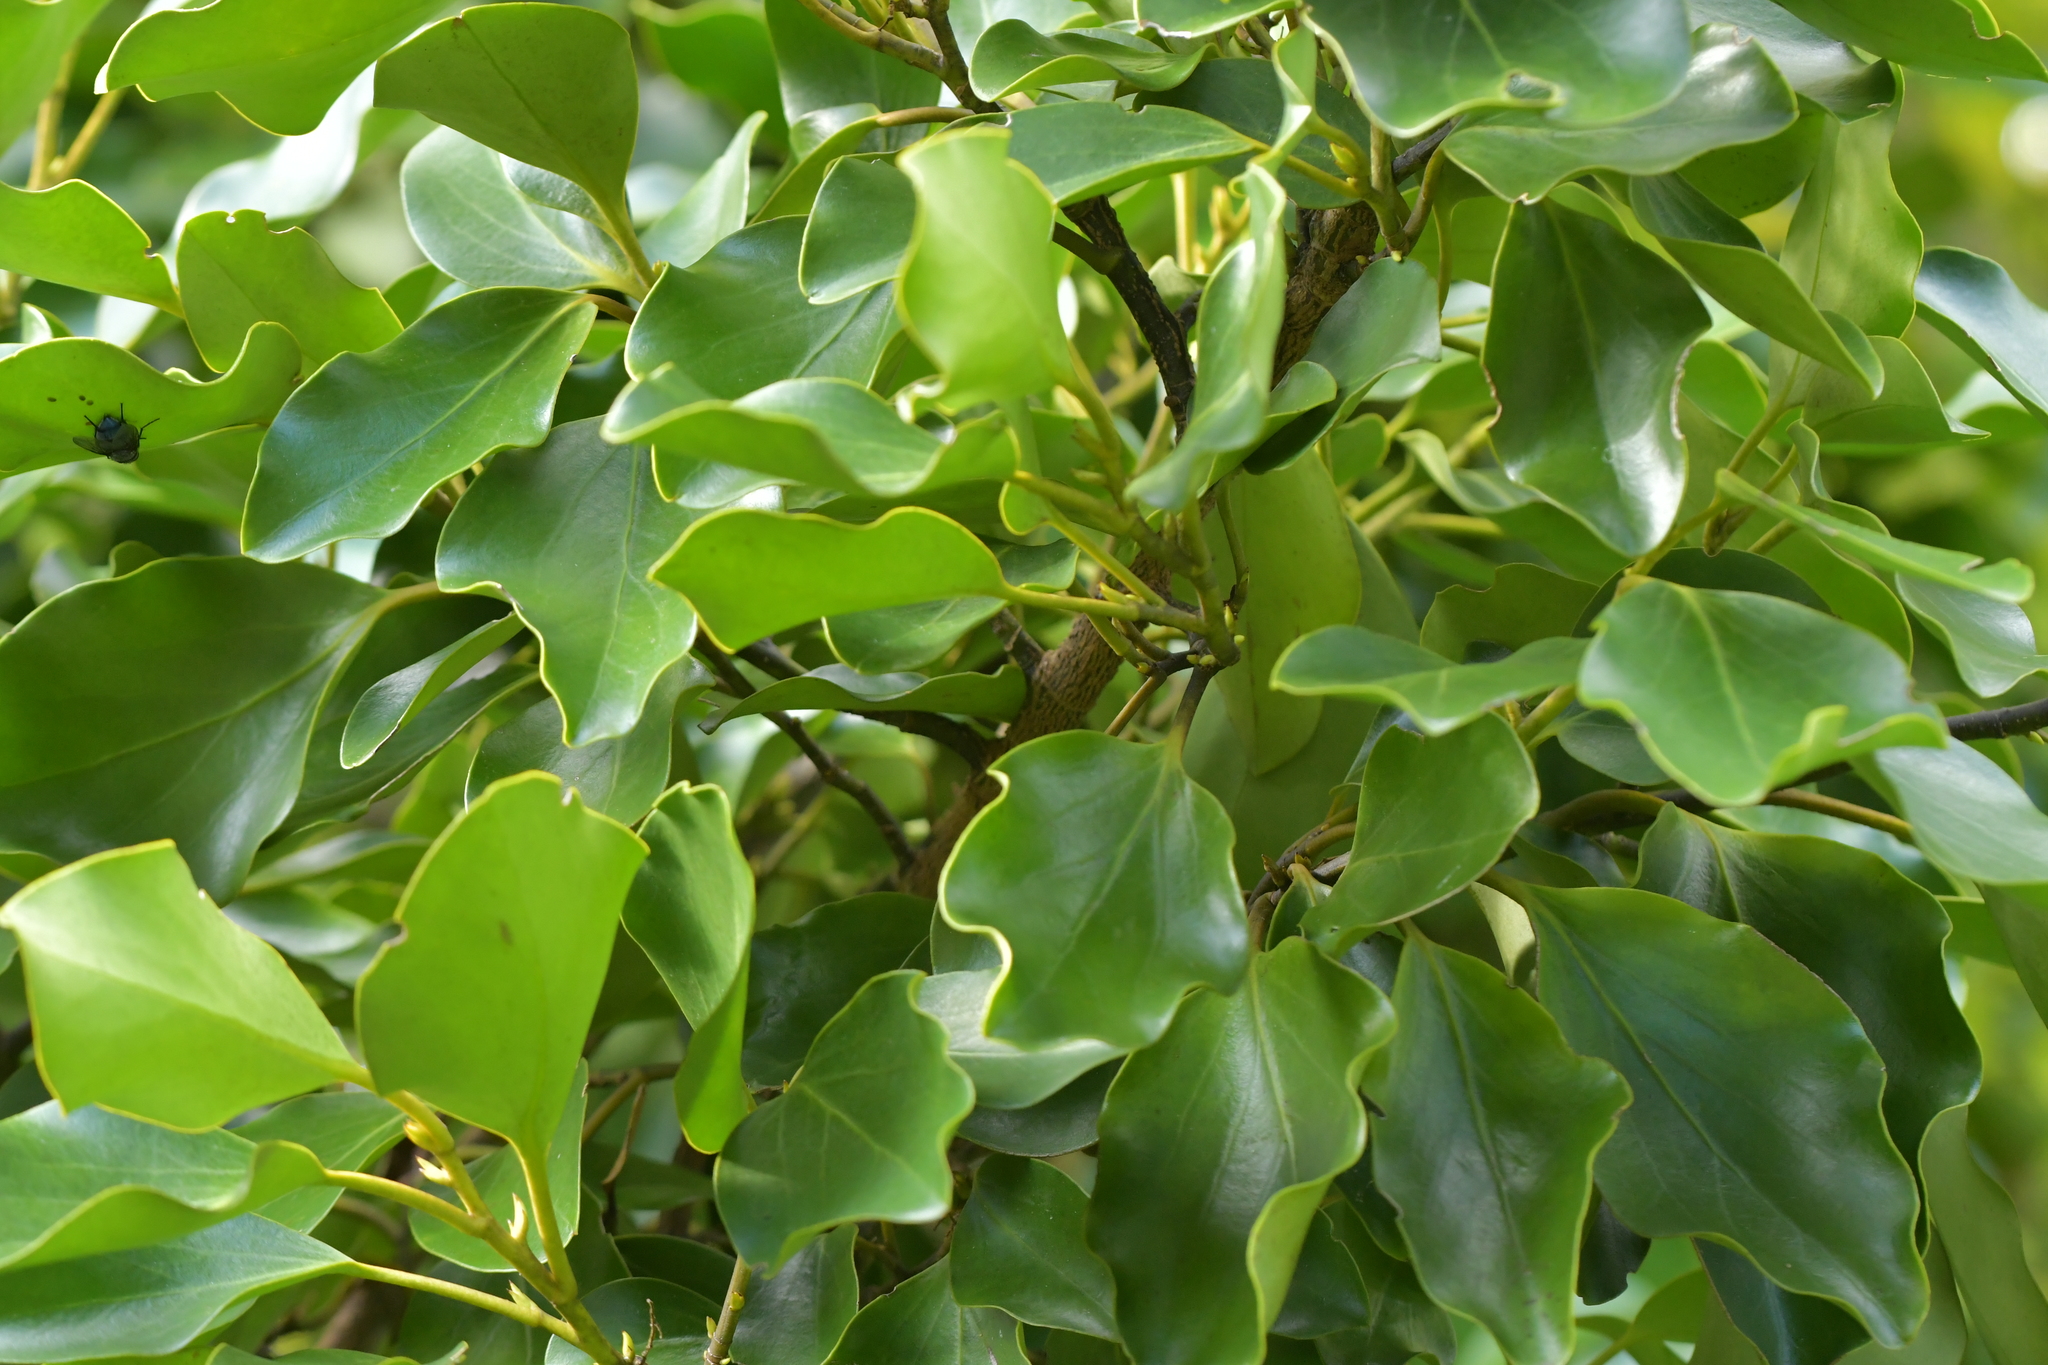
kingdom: Plantae
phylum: Tracheophyta
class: Magnoliopsida
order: Apiales
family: Griseliniaceae
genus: Griselinia
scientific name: Griselinia littoralis
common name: New zealand broadleaf
